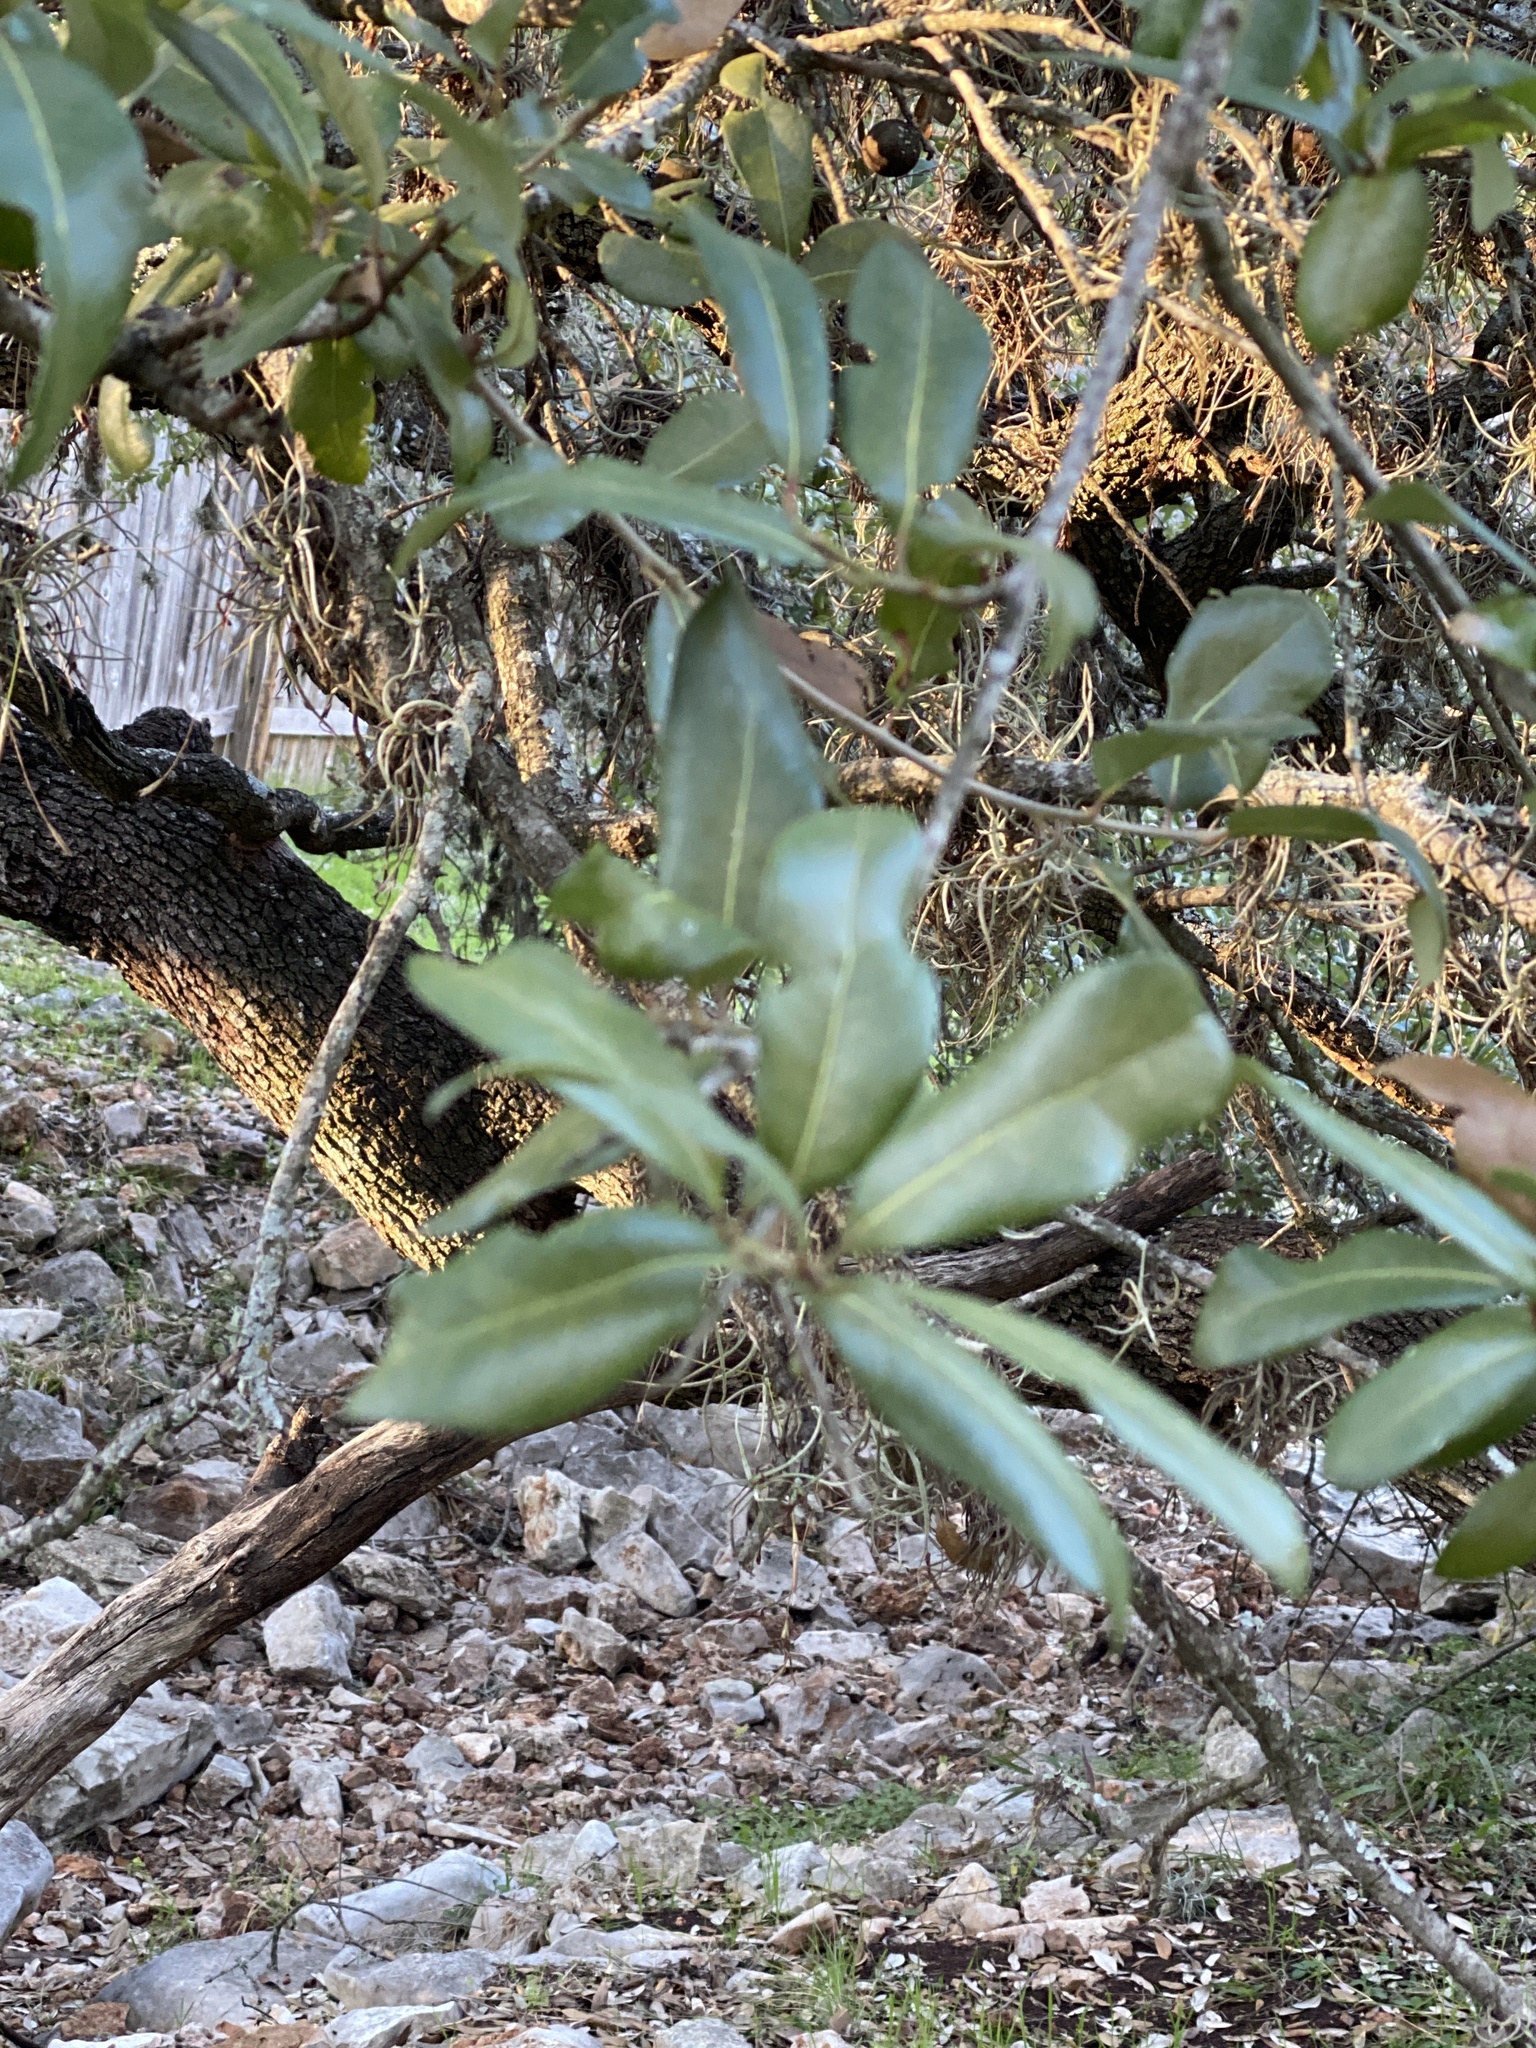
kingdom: Plantae
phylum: Tracheophyta
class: Magnoliopsida
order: Fagales
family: Fagaceae
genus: Quercus
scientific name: Quercus fusiformis
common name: Texas live oak
